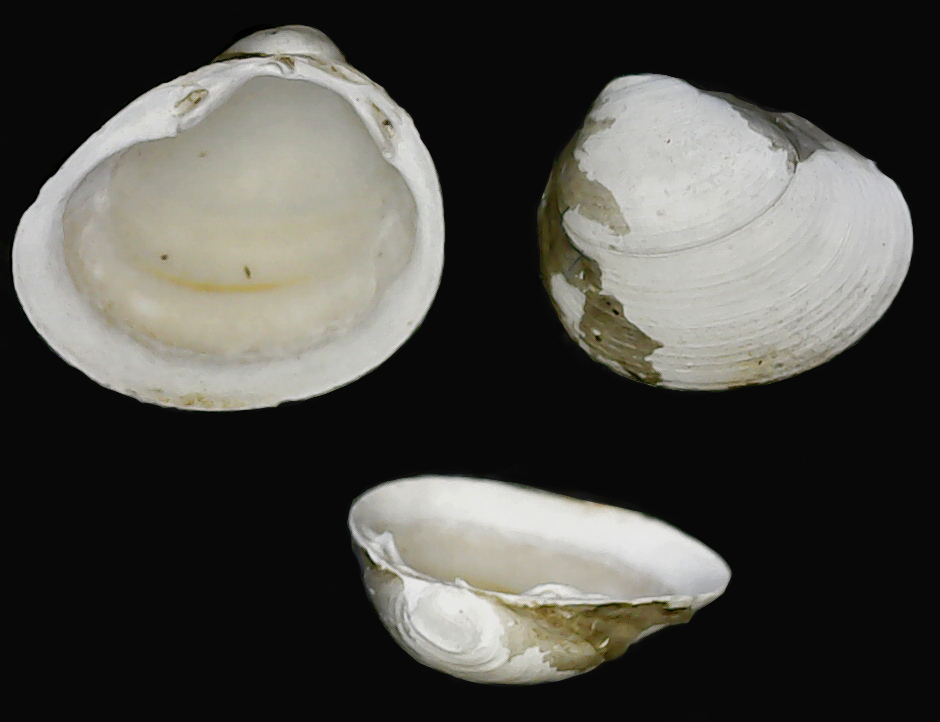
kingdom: Animalia
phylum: Mollusca
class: Bivalvia
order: Sphaeriida
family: Sphaeriidae
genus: Euglesa
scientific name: Euglesa supina
